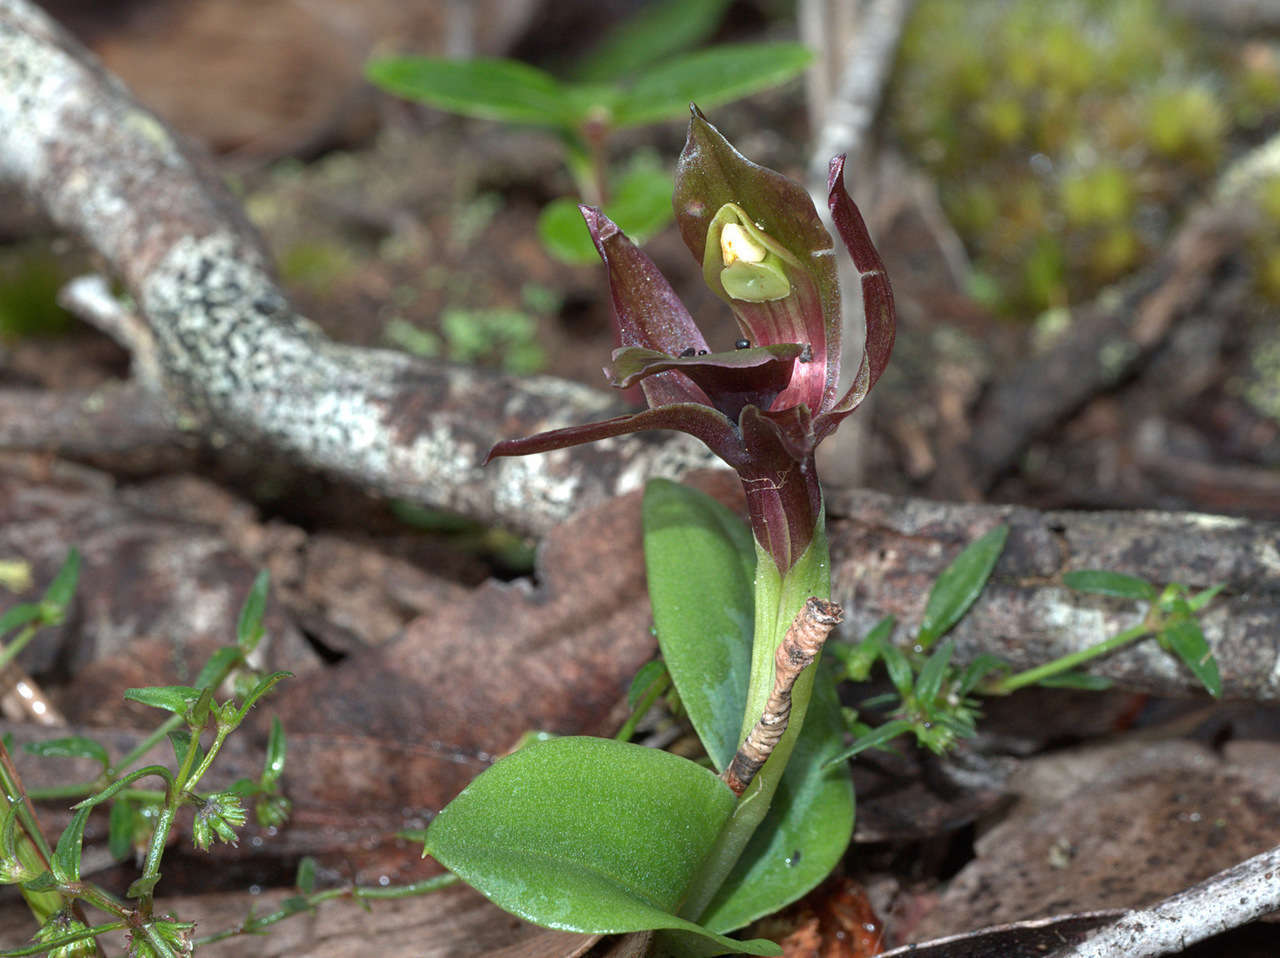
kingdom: Plantae
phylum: Tracheophyta
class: Liliopsida
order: Asparagales
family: Orchidaceae
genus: Chiloglottis
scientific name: Chiloglottis valida
